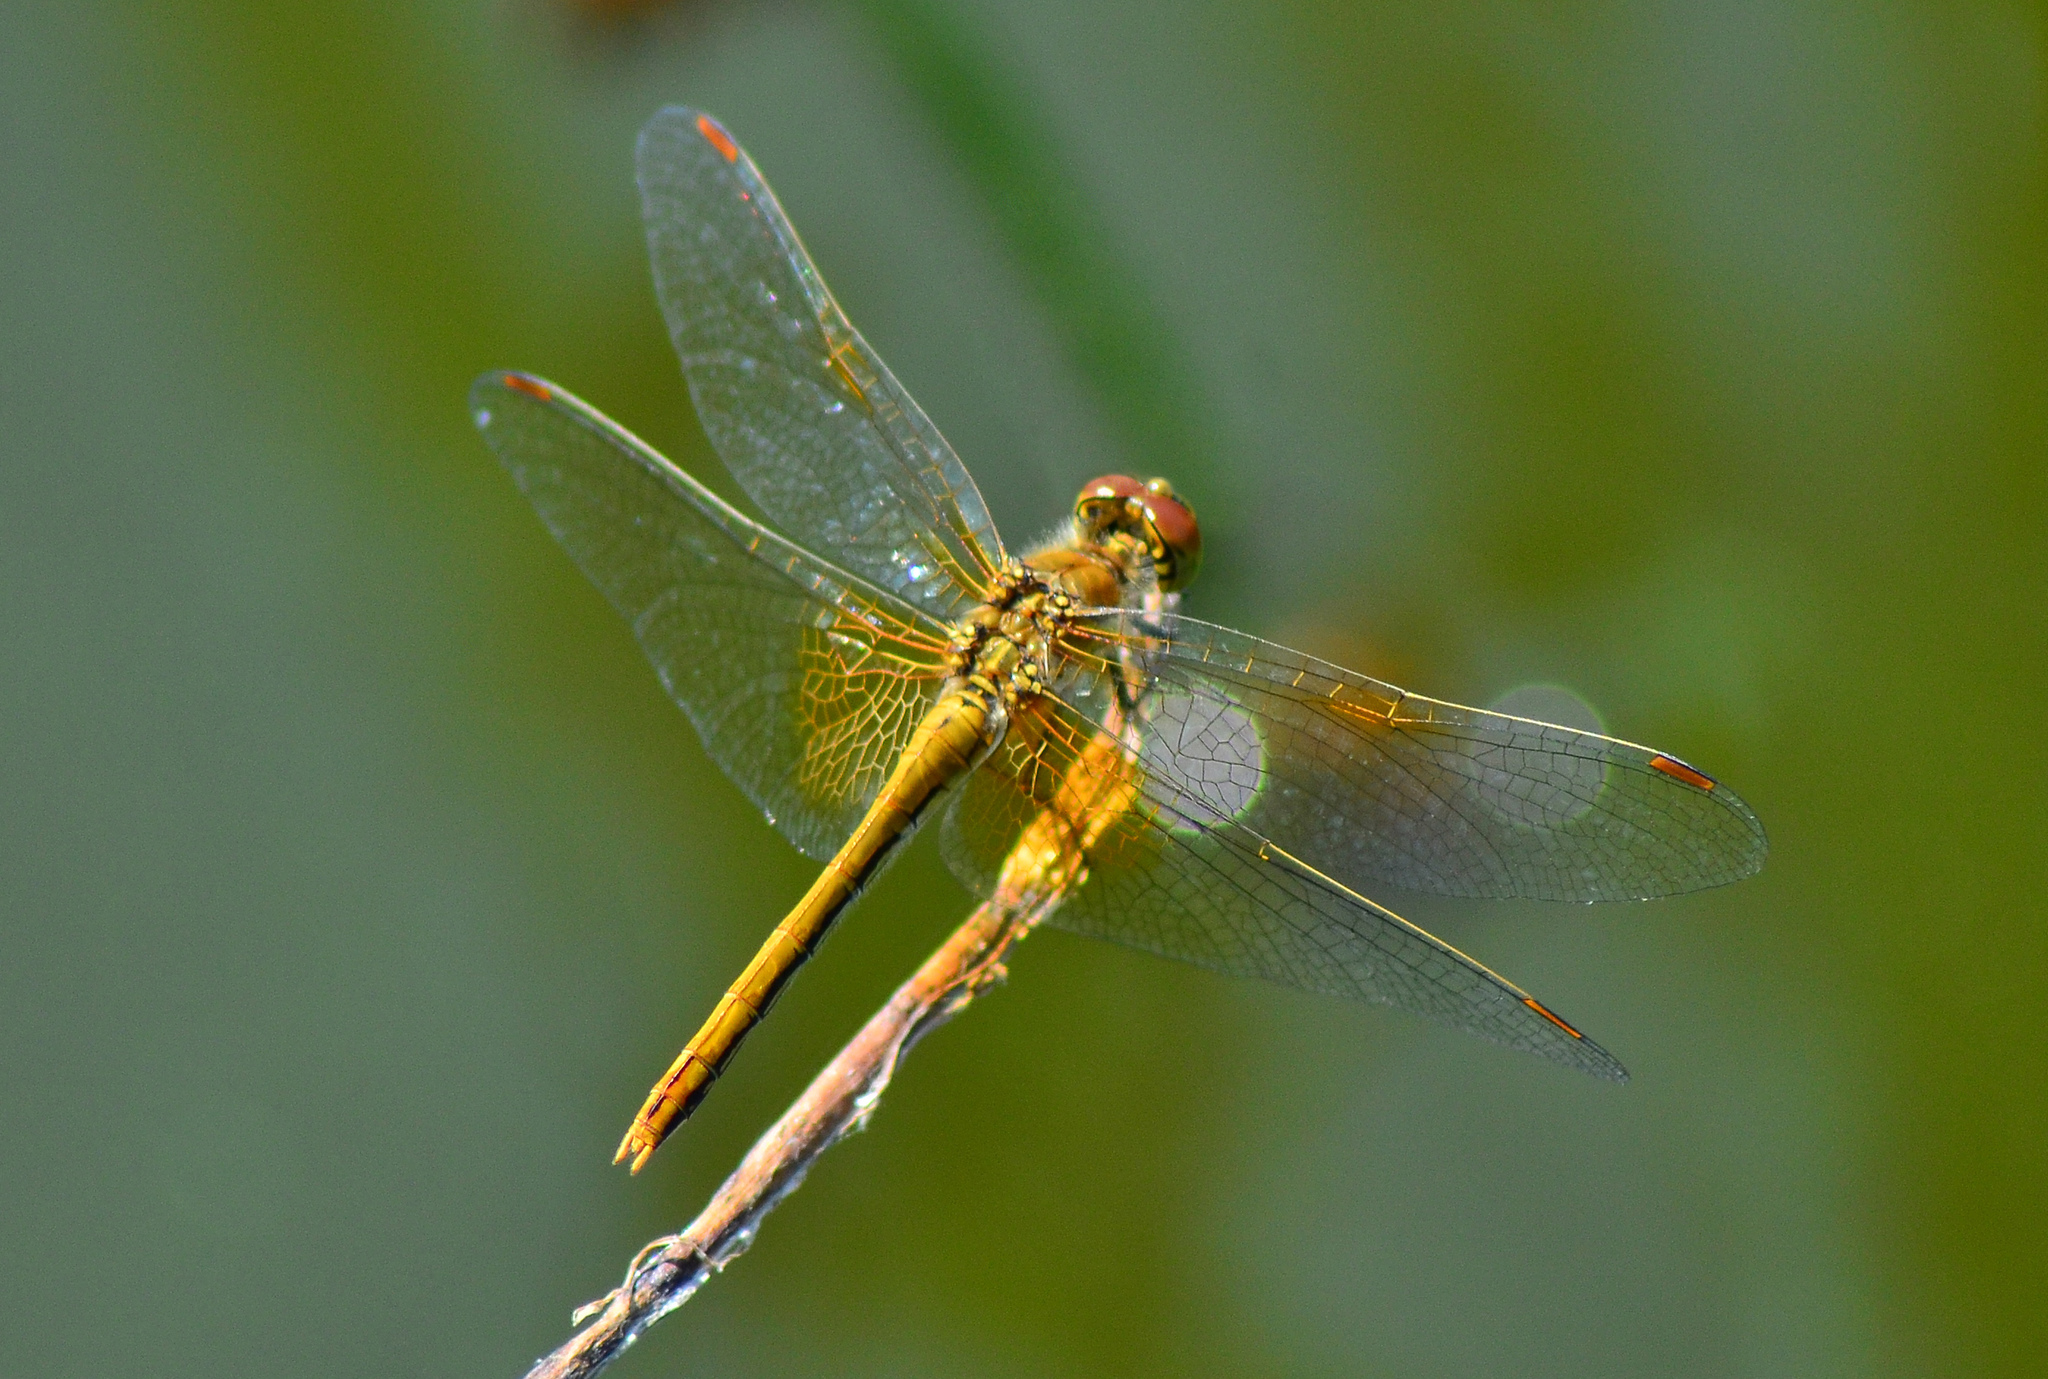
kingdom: Animalia
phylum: Arthropoda
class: Insecta
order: Odonata
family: Libellulidae
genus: Sympetrum
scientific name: Sympetrum flaveolum
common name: Yellow-winged darter
